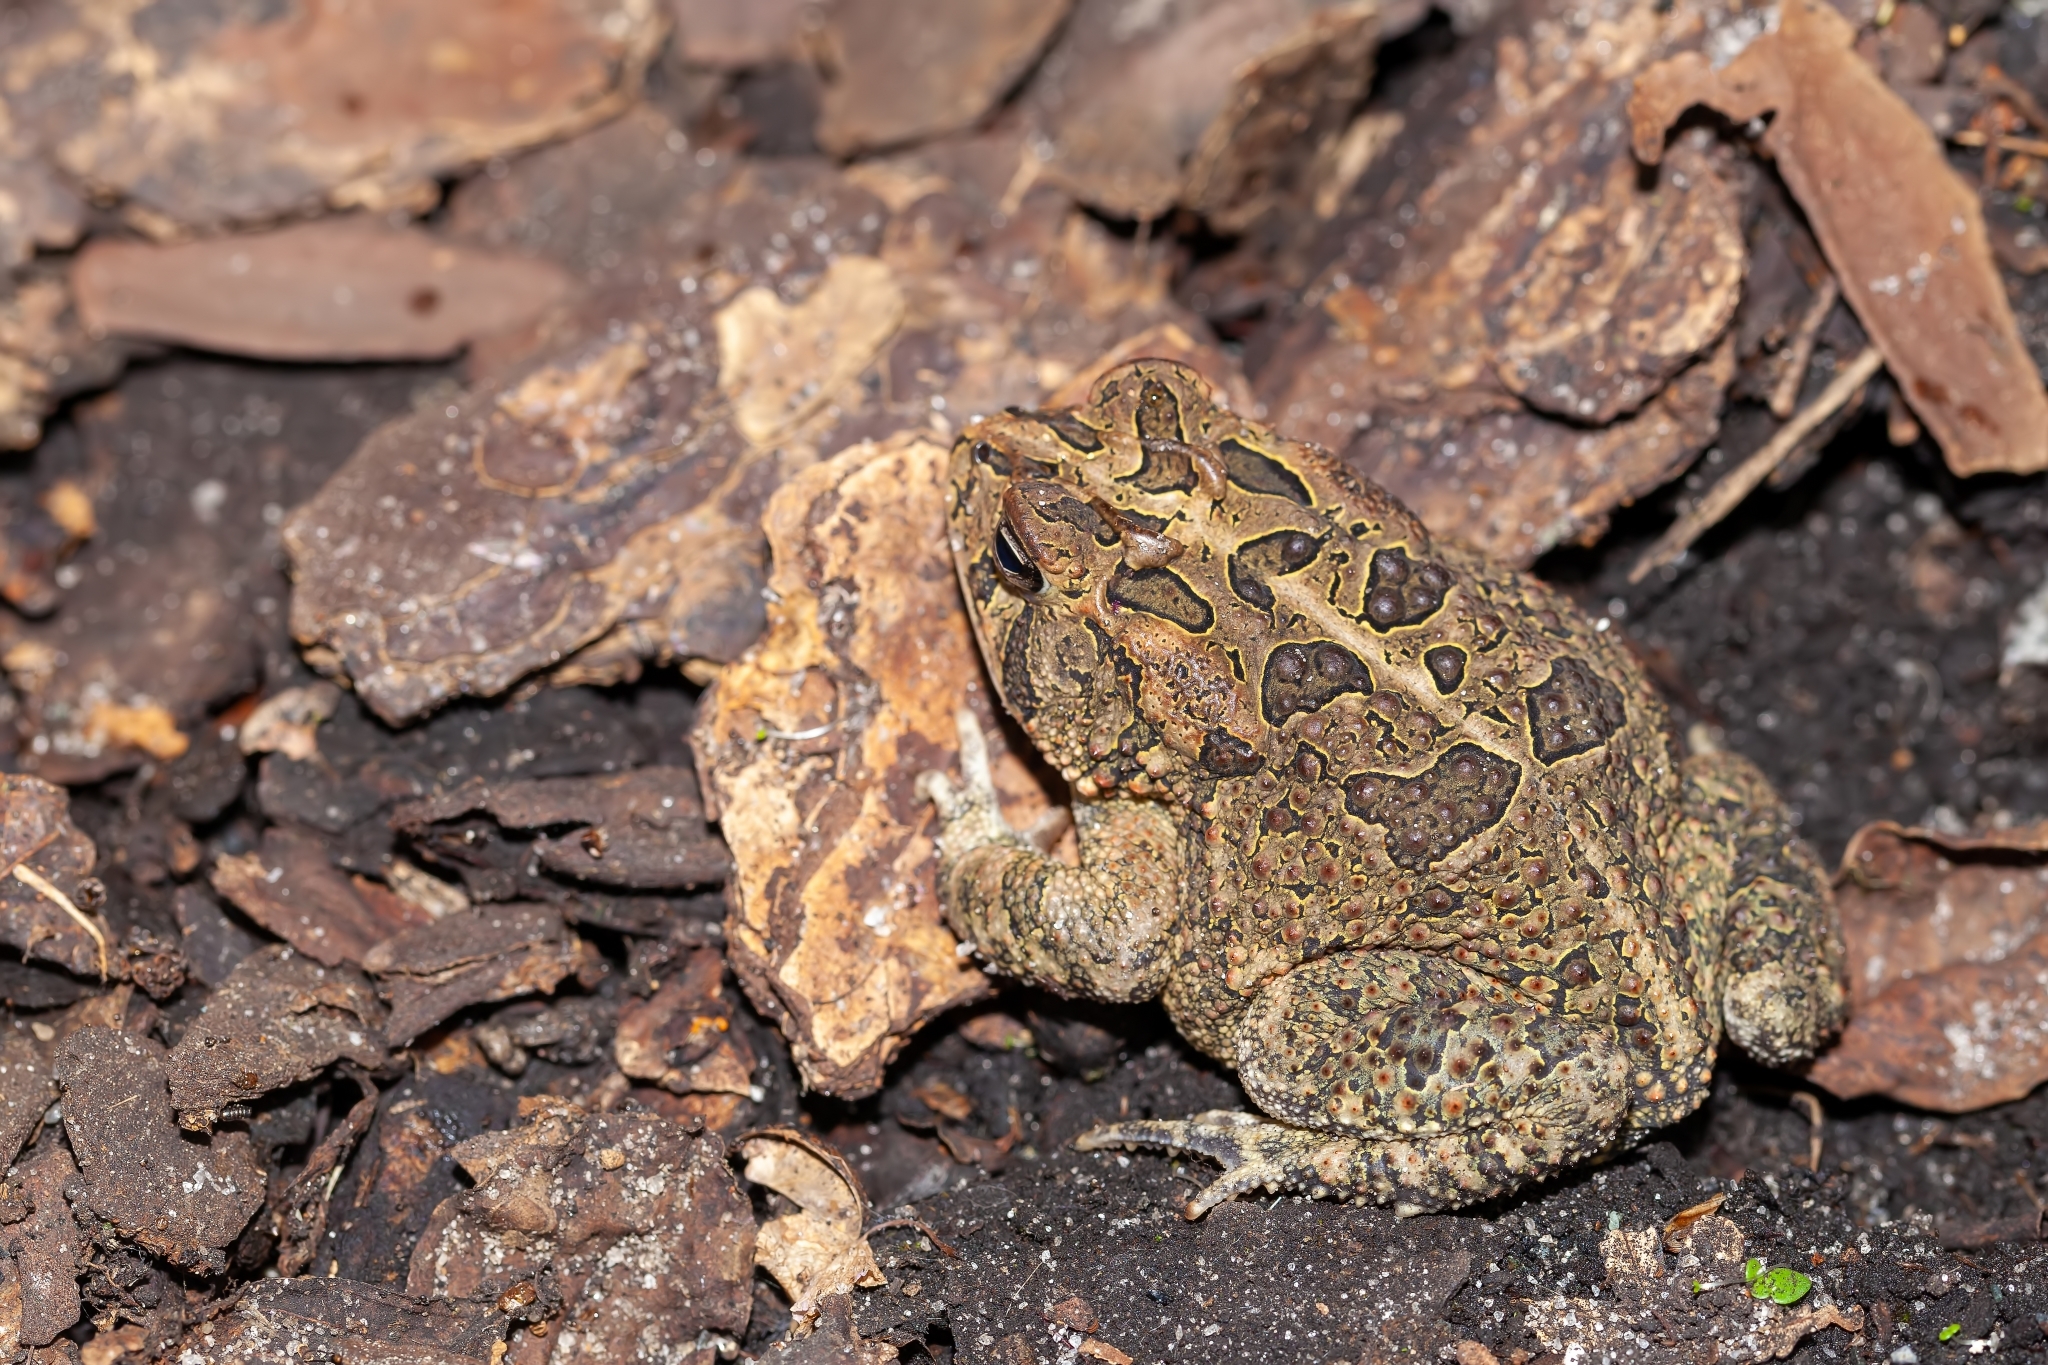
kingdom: Animalia
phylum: Chordata
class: Amphibia
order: Anura
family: Bufonidae
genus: Anaxyrus
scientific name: Anaxyrus terrestris
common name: Southern toad
